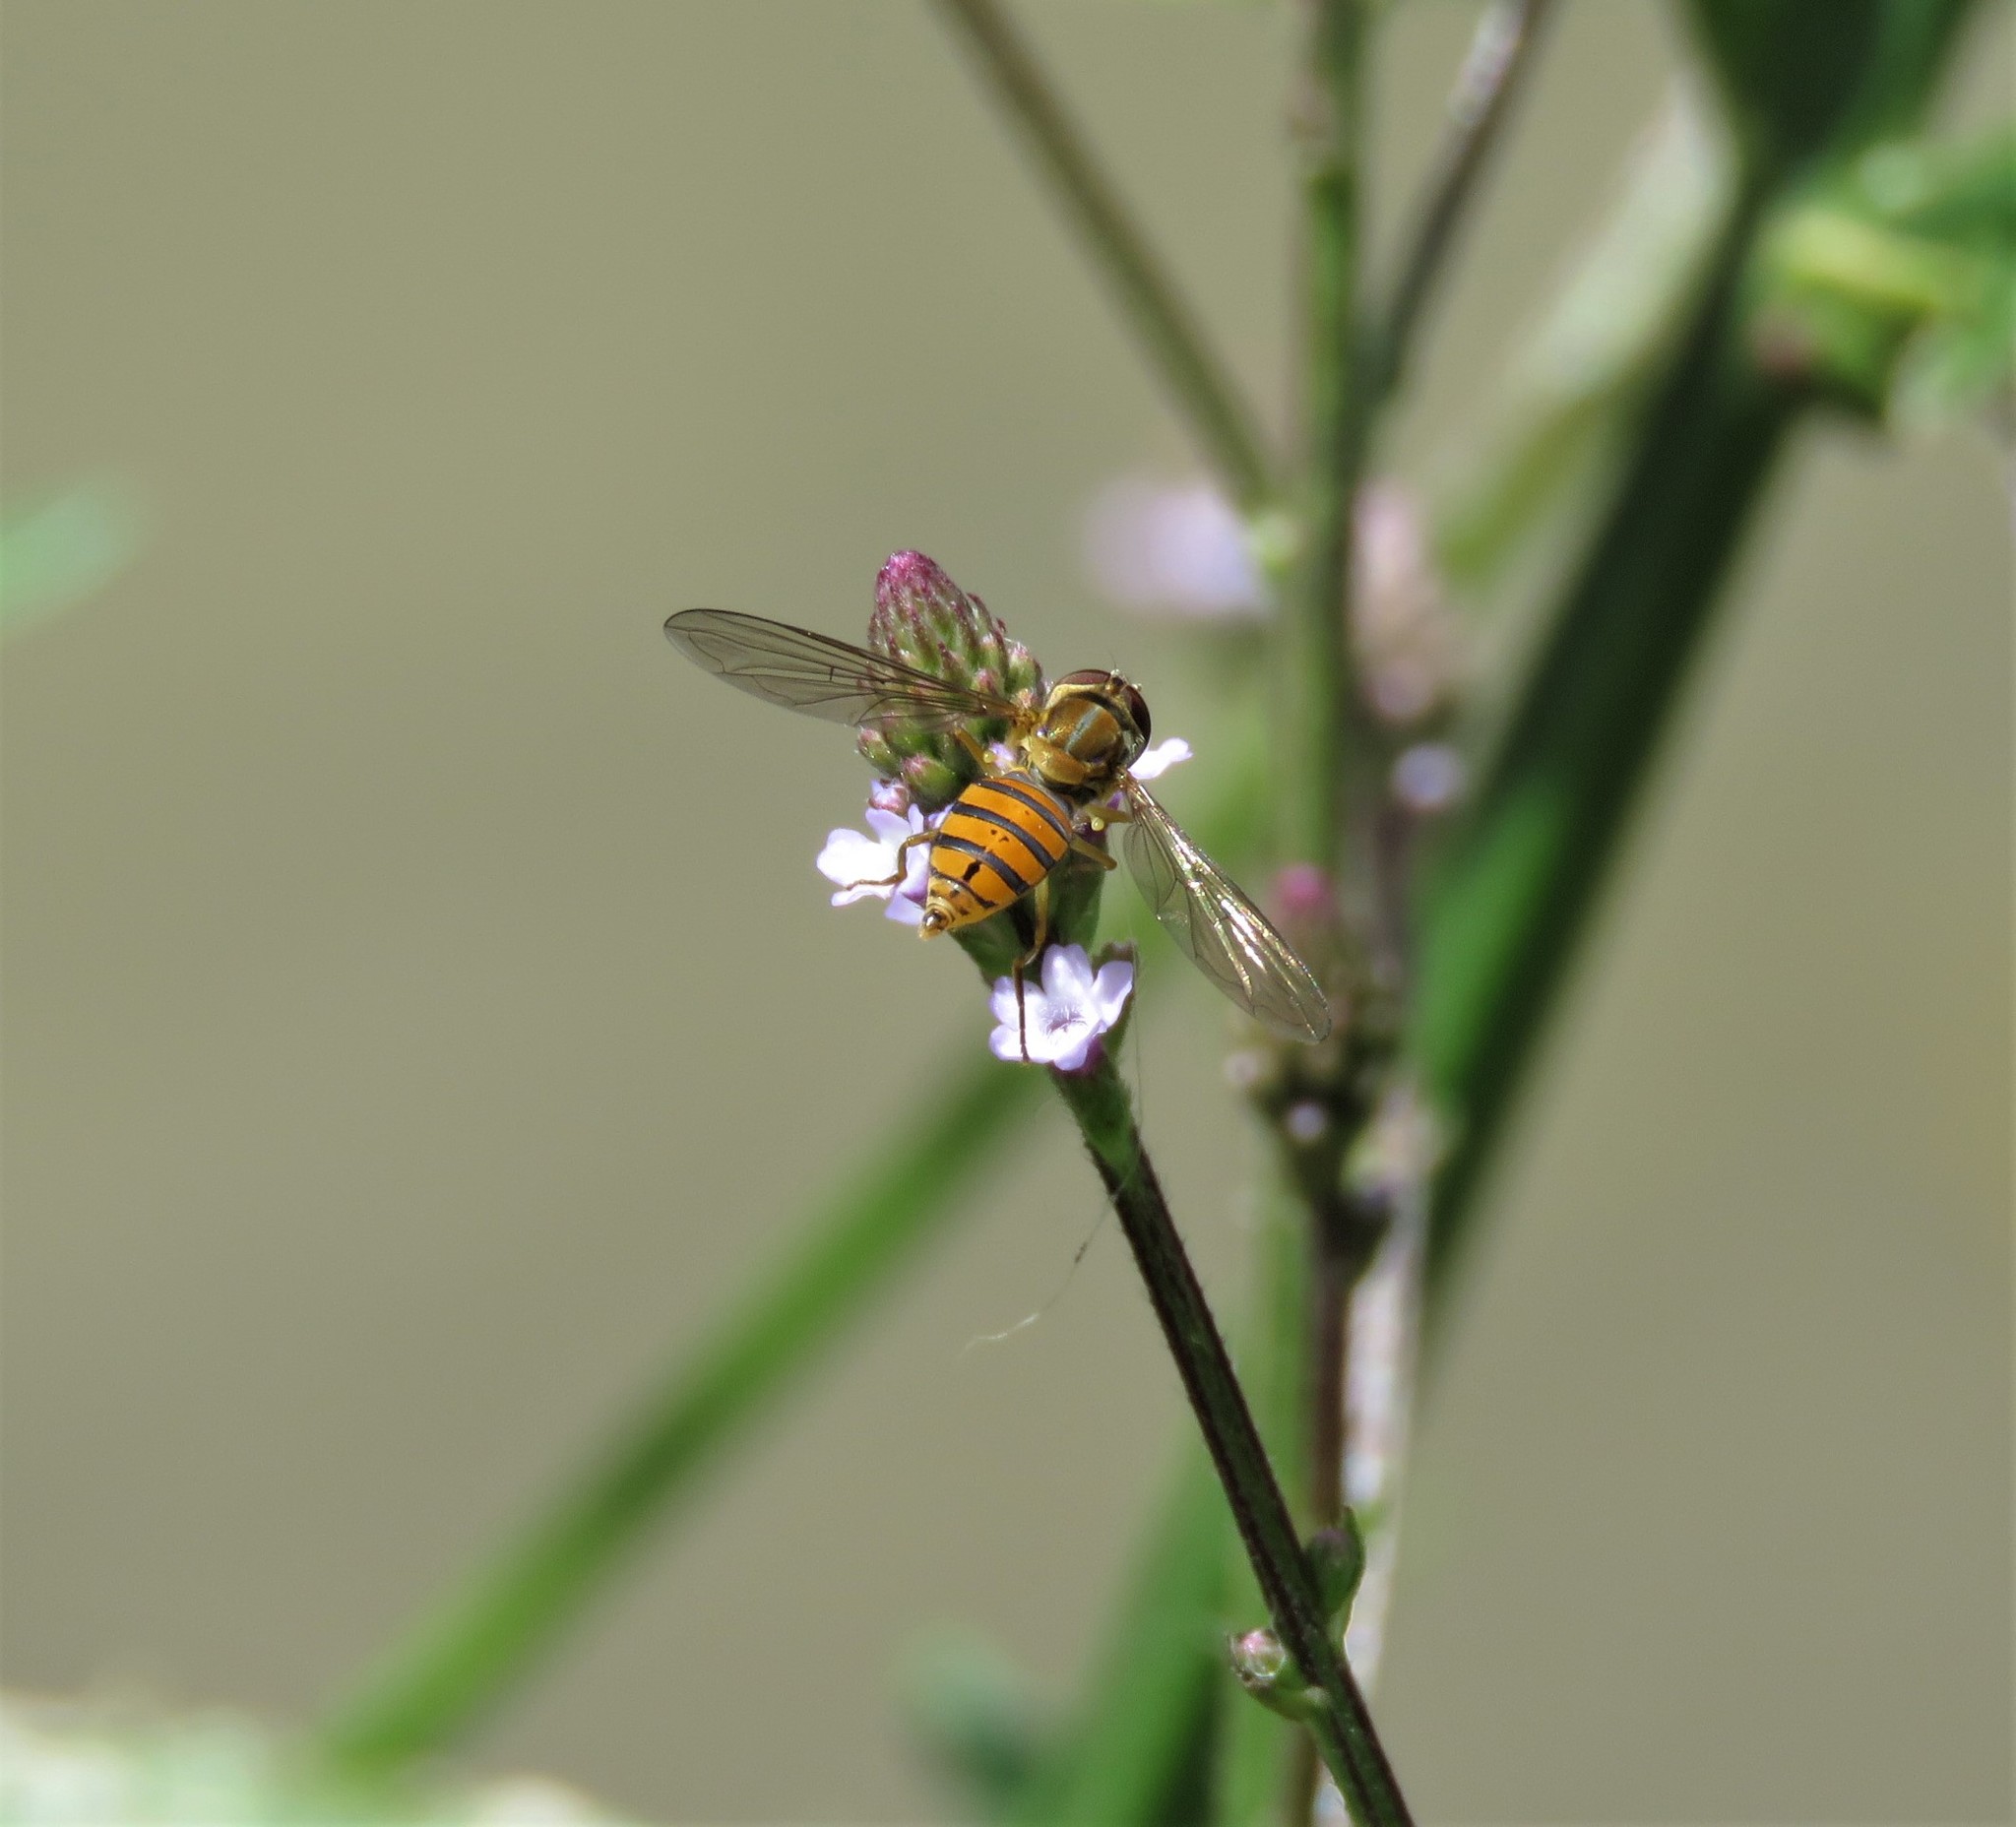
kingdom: Plantae
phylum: Tracheophyta
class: Magnoliopsida
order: Lamiales
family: Verbenaceae
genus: Verbena
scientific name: Verbena litoralis
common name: Seashore vervain
